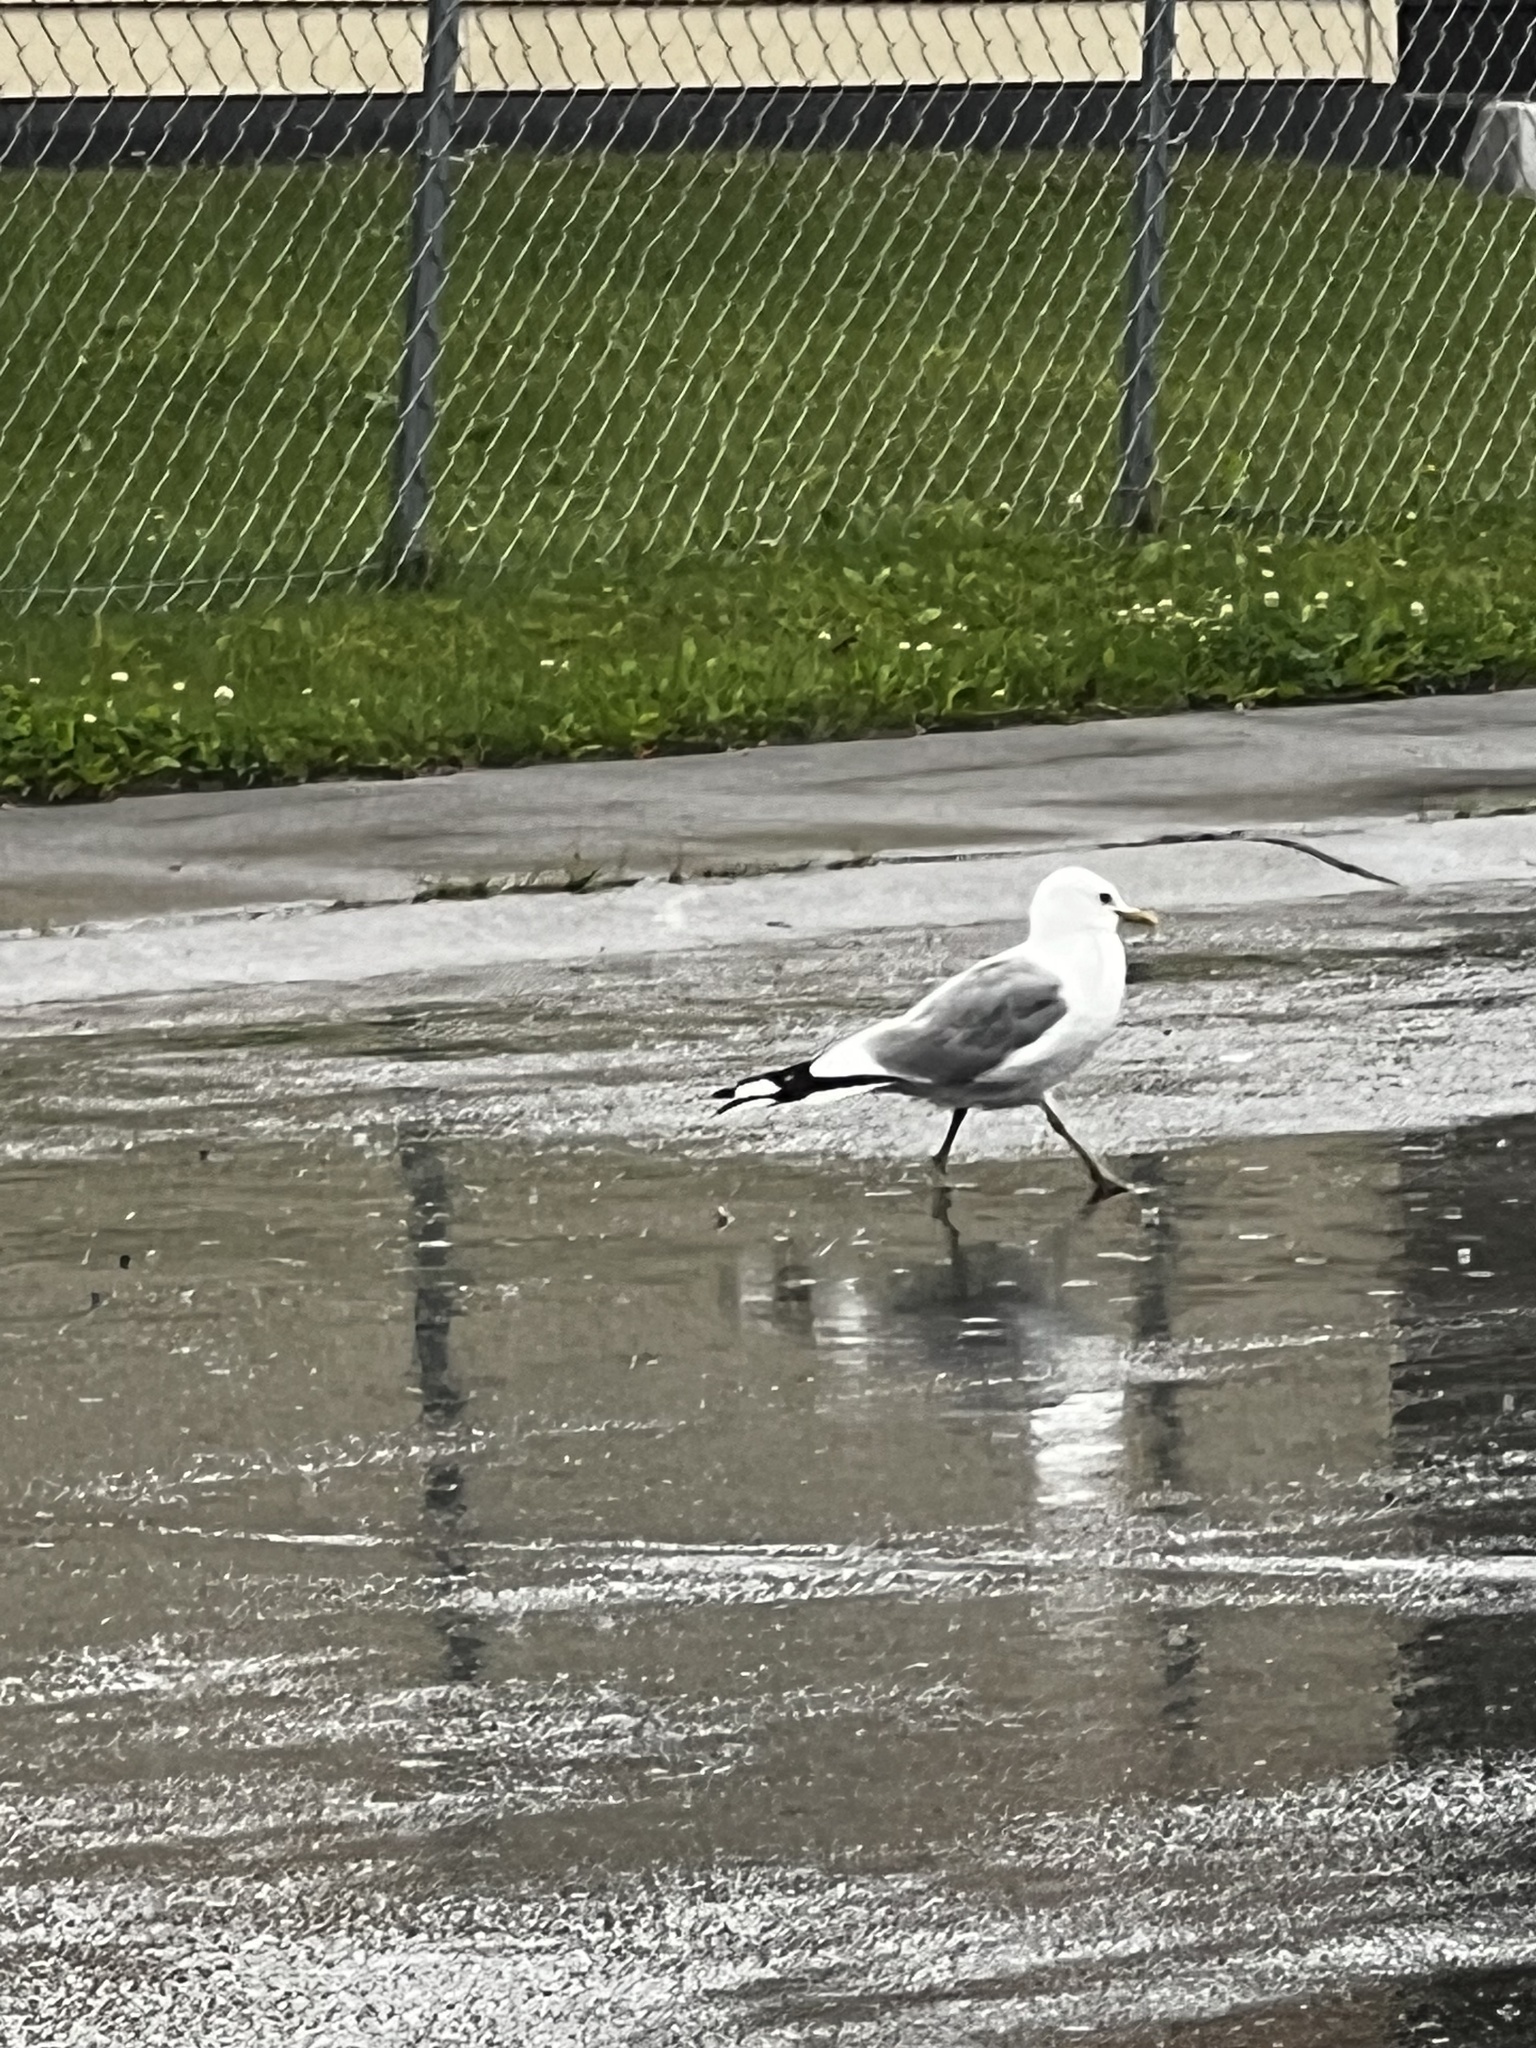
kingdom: Animalia
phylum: Chordata
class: Aves
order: Charadriiformes
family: Laridae
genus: Larus
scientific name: Larus brachyrhynchus
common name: Short-billed gull
